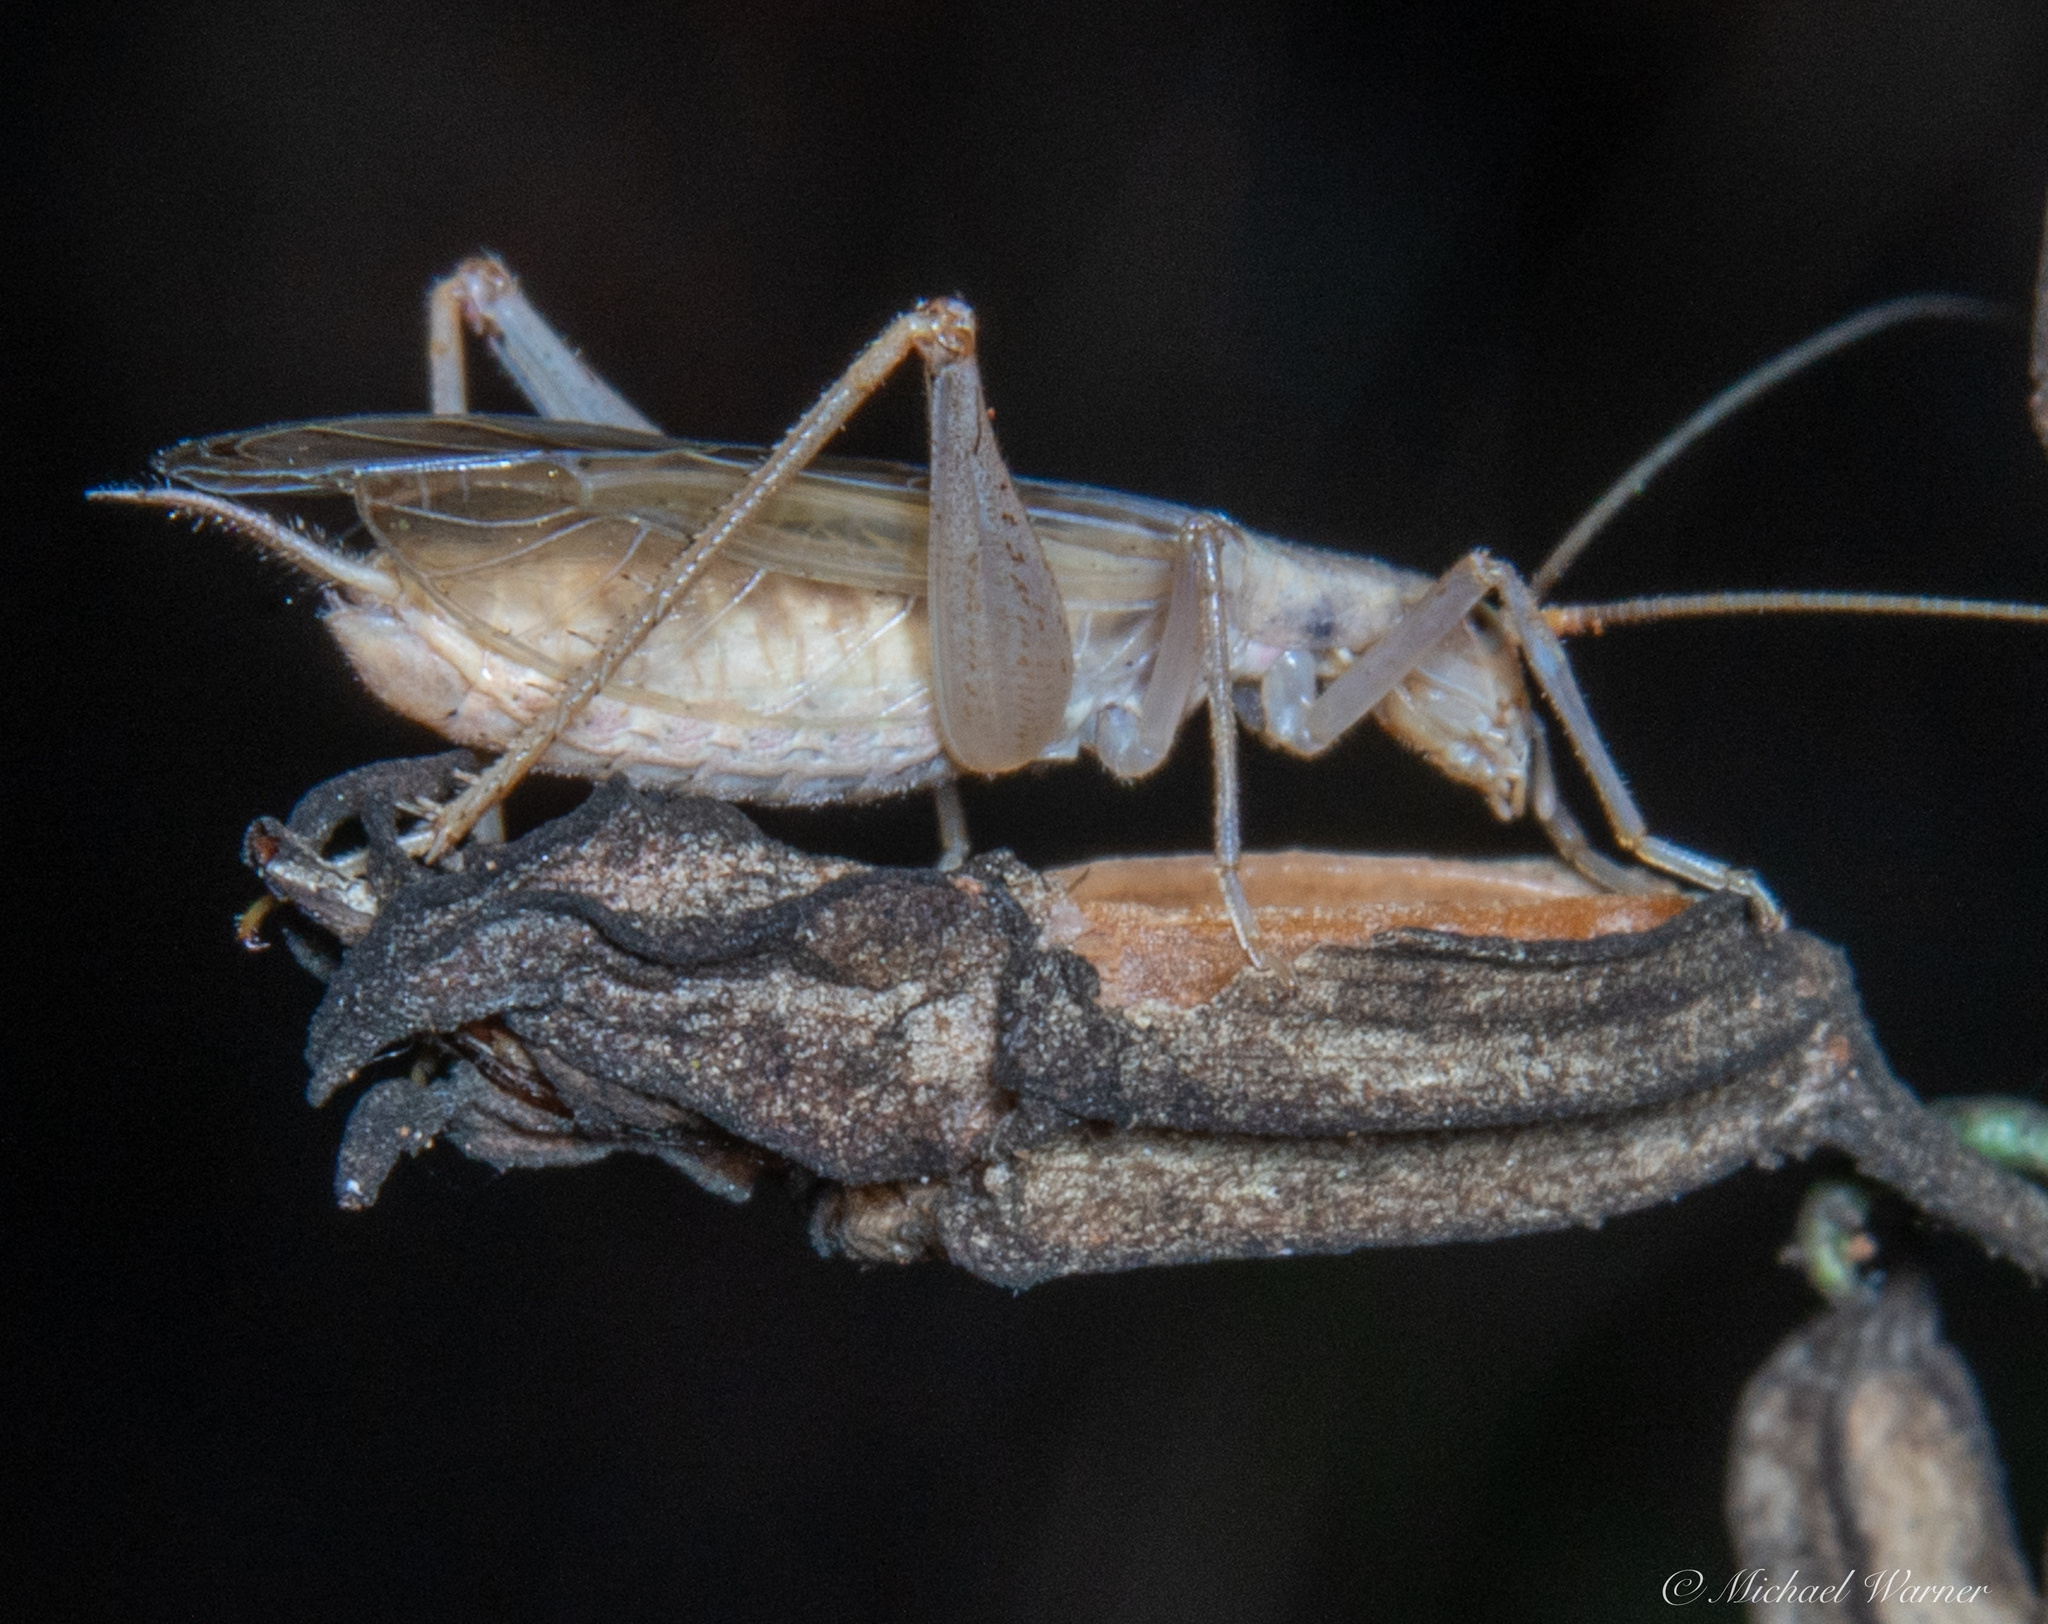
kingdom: Animalia
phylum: Arthropoda
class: Insecta
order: Orthoptera
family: Gryllidae
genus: Oecanthus
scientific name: Oecanthus californicus
